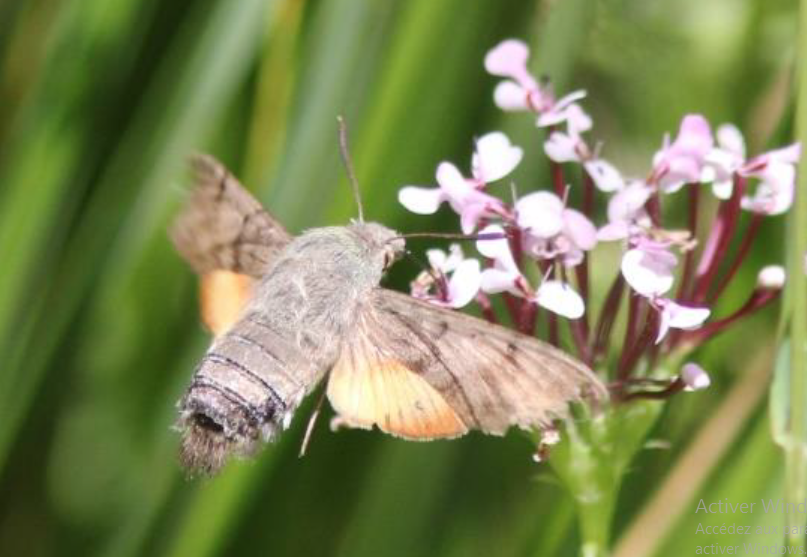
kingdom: Animalia
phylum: Arthropoda
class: Insecta
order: Lepidoptera
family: Sphingidae
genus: Macroglossum
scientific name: Macroglossum stellatarum
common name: Humming-bird hawk-moth
